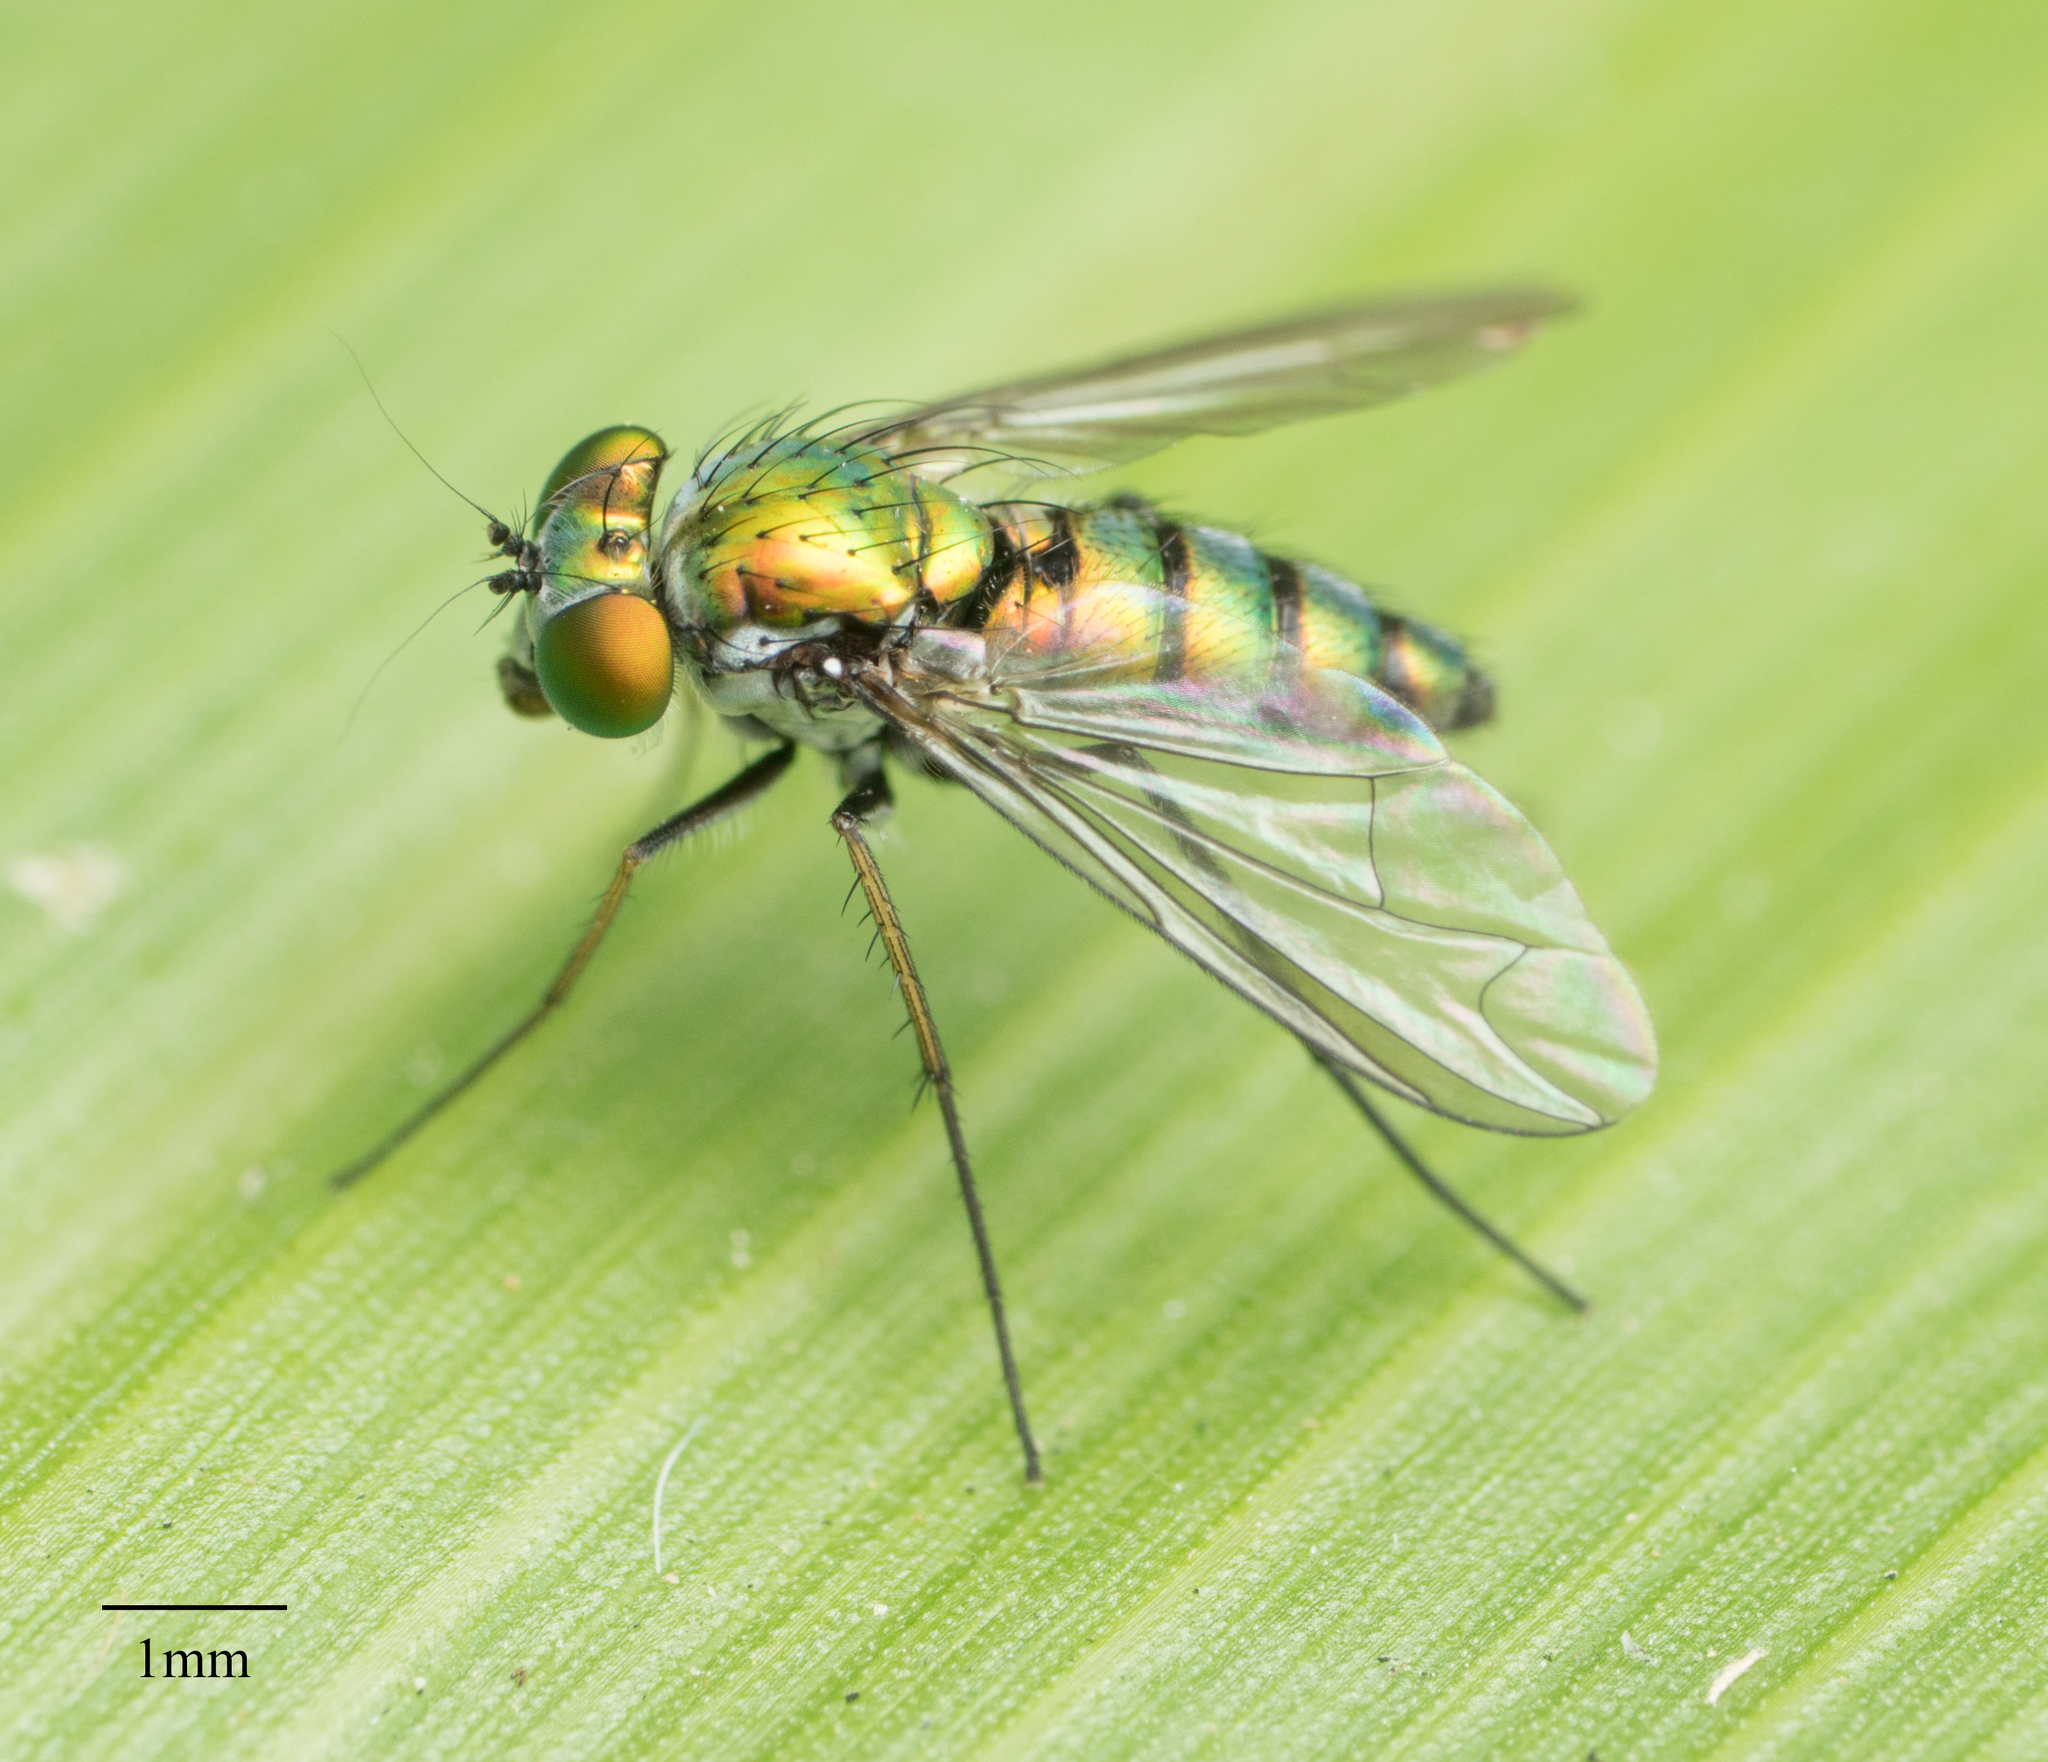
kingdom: Animalia
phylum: Arthropoda
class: Insecta
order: Diptera
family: Dolichopodidae
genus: Condylostylus
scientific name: Condylostylus longicornis
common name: Long-legged fly
